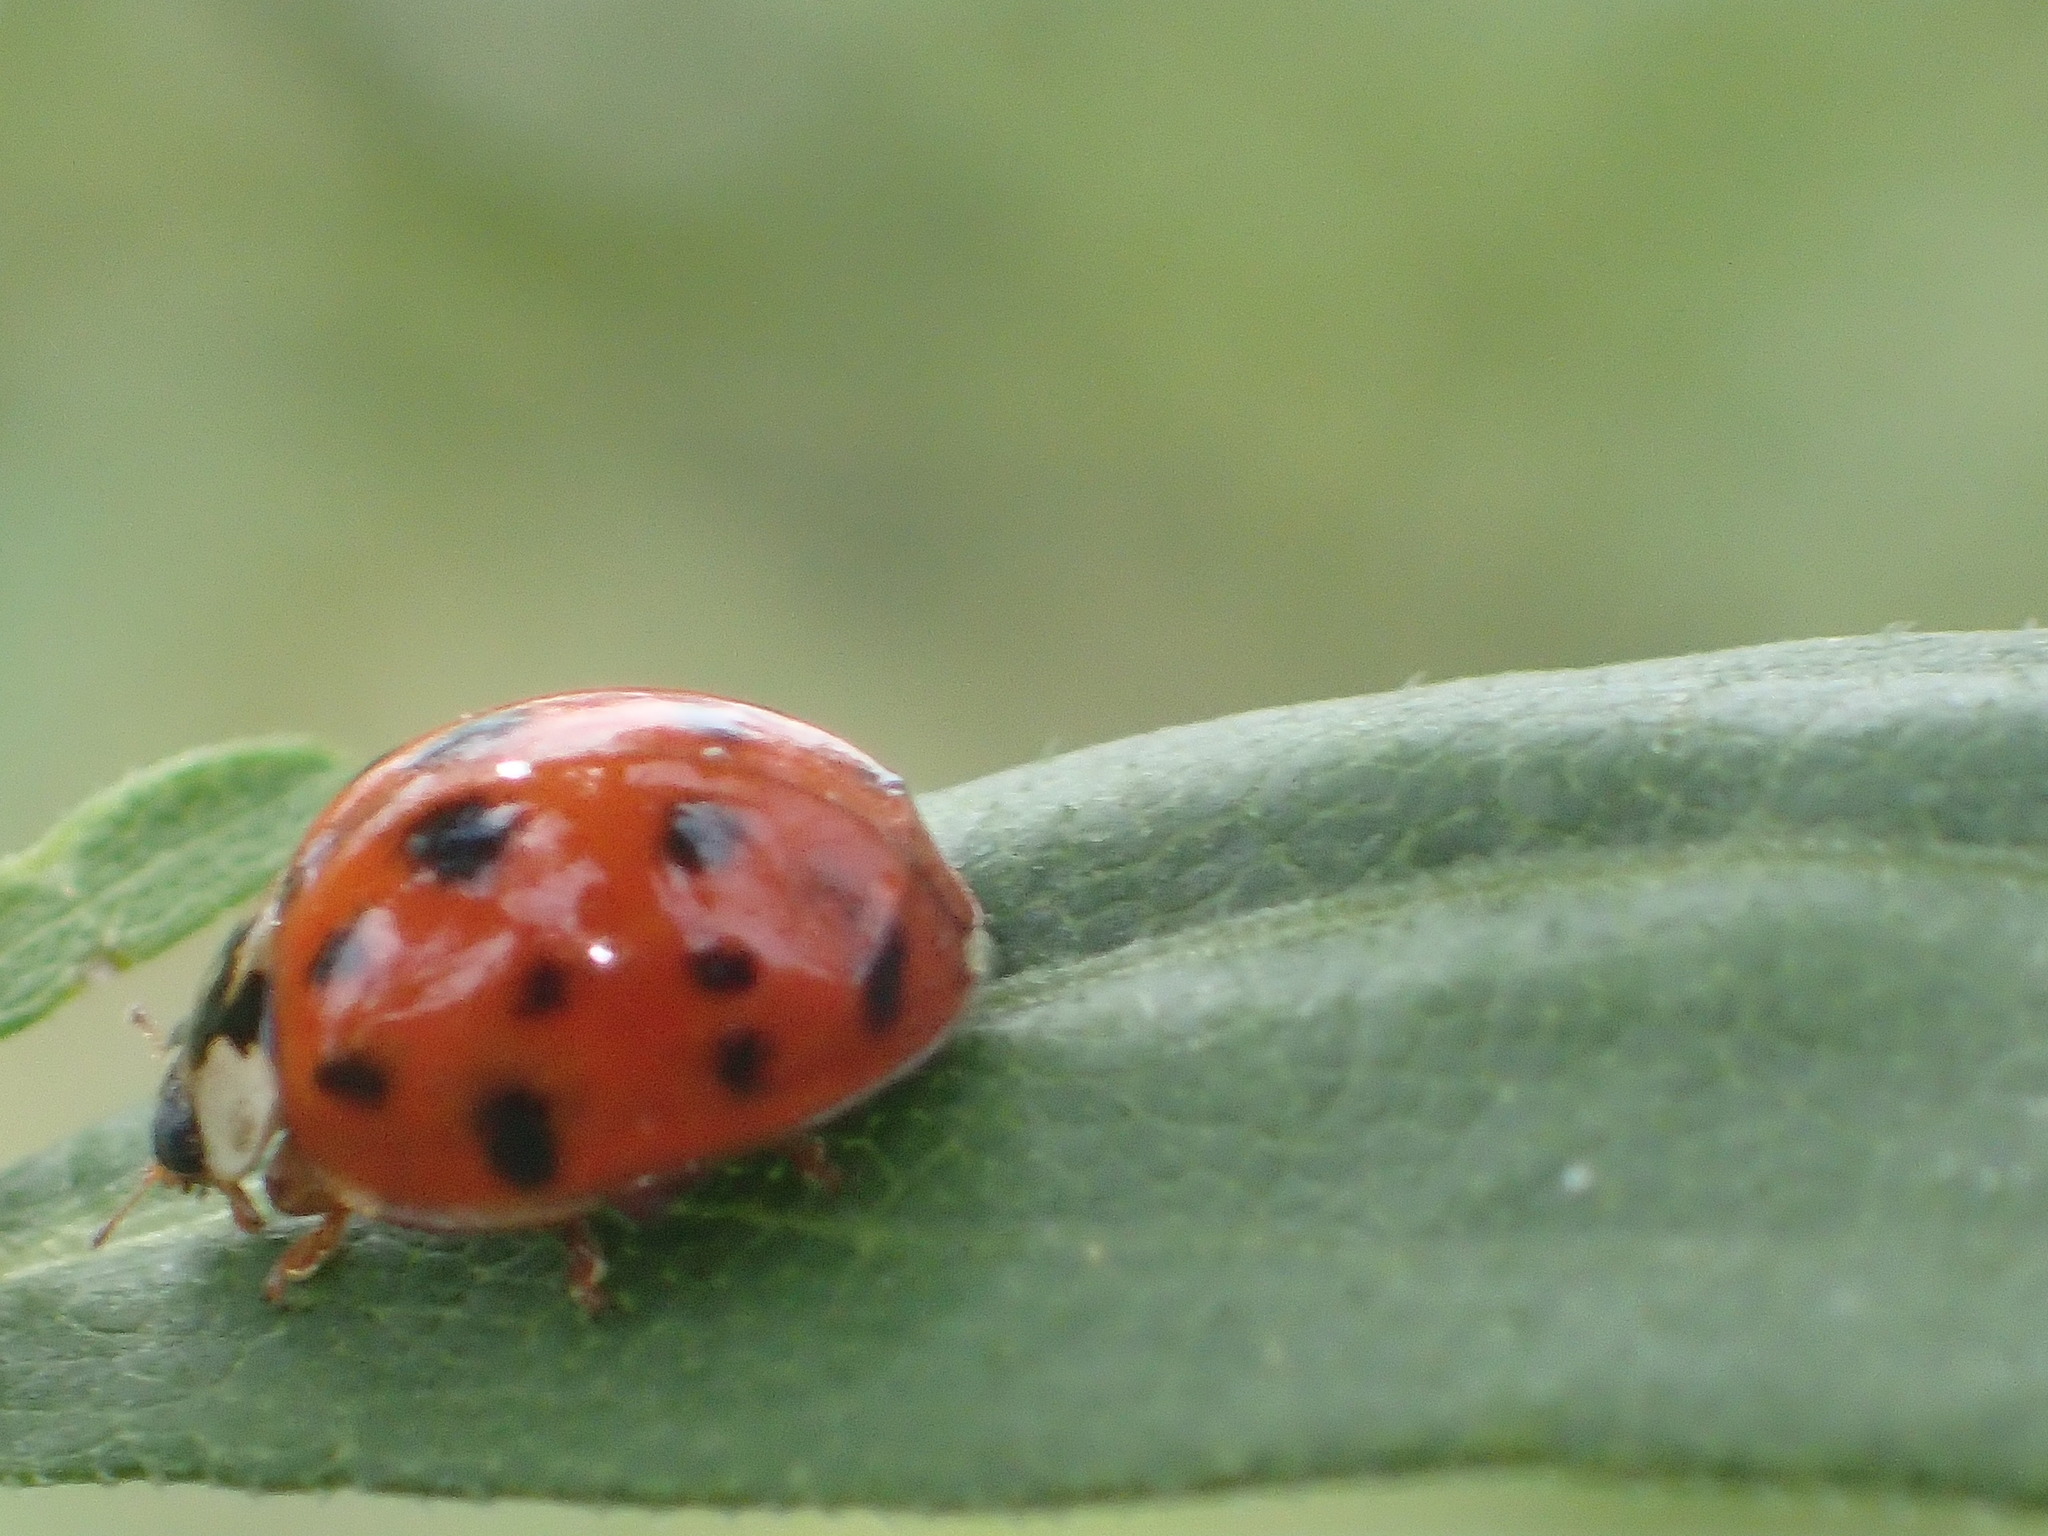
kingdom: Animalia
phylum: Arthropoda
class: Insecta
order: Coleoptera
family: Coccinellidae
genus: Harmonia
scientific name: Harmonia axyridis
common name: Harlequin ladybird
